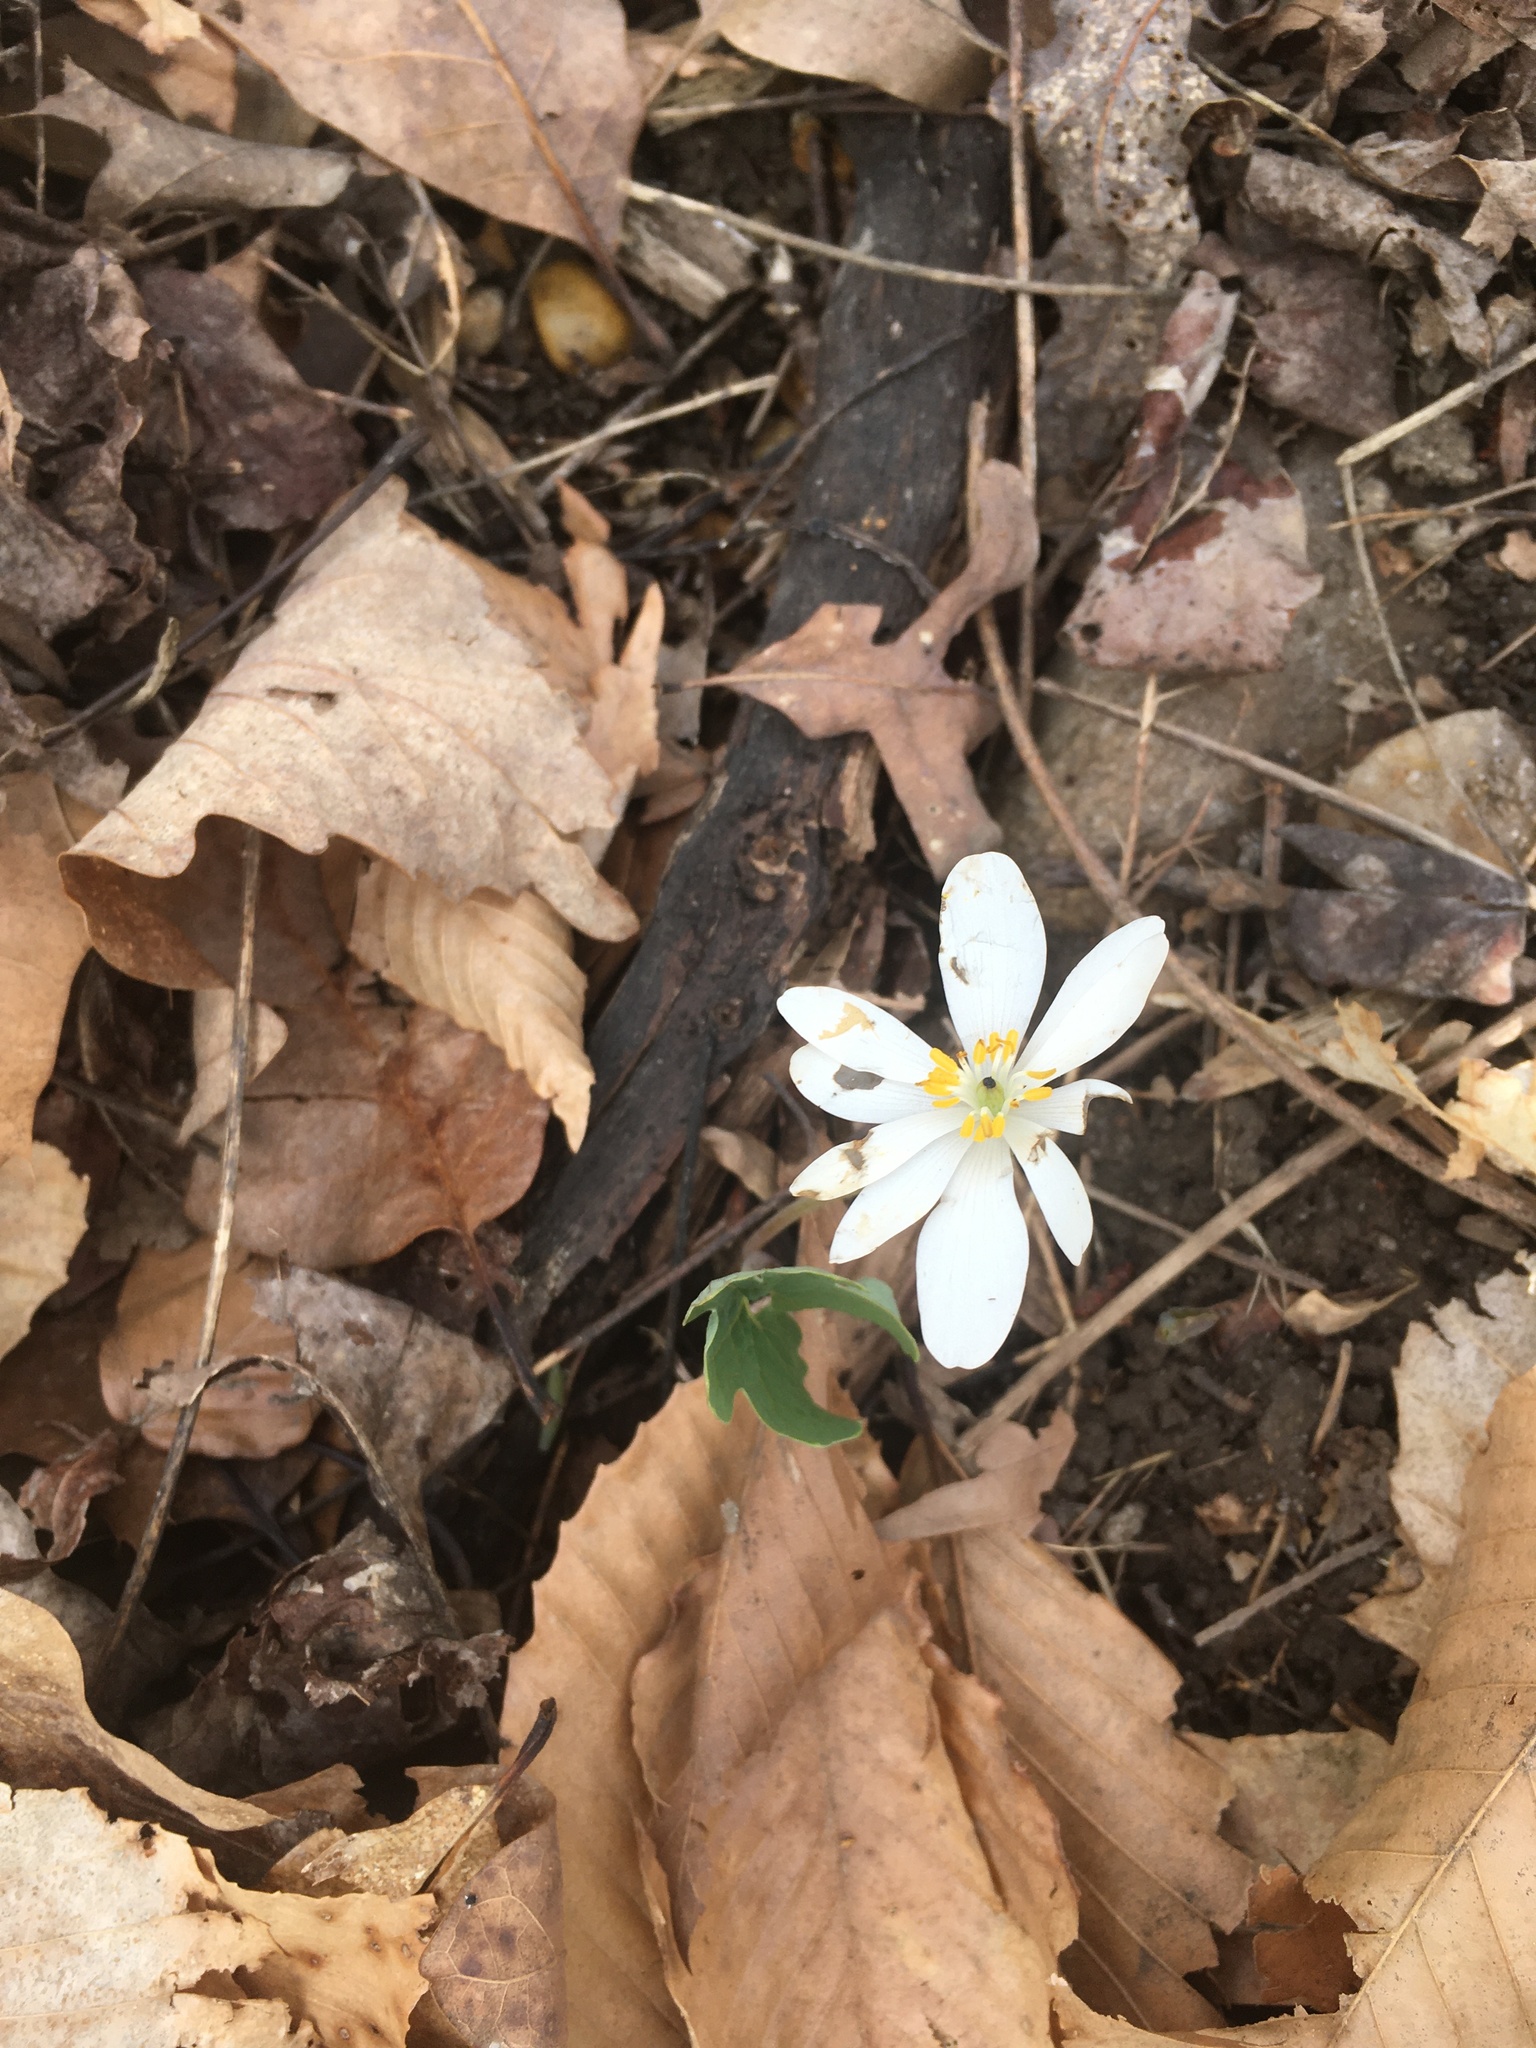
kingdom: Plantae
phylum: Tracheophyta
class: Magnoliopsida
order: Ranunculales
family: Papaveraceae
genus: Sanguinaria
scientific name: Sanguinaria canadensis
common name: Bloodroot
